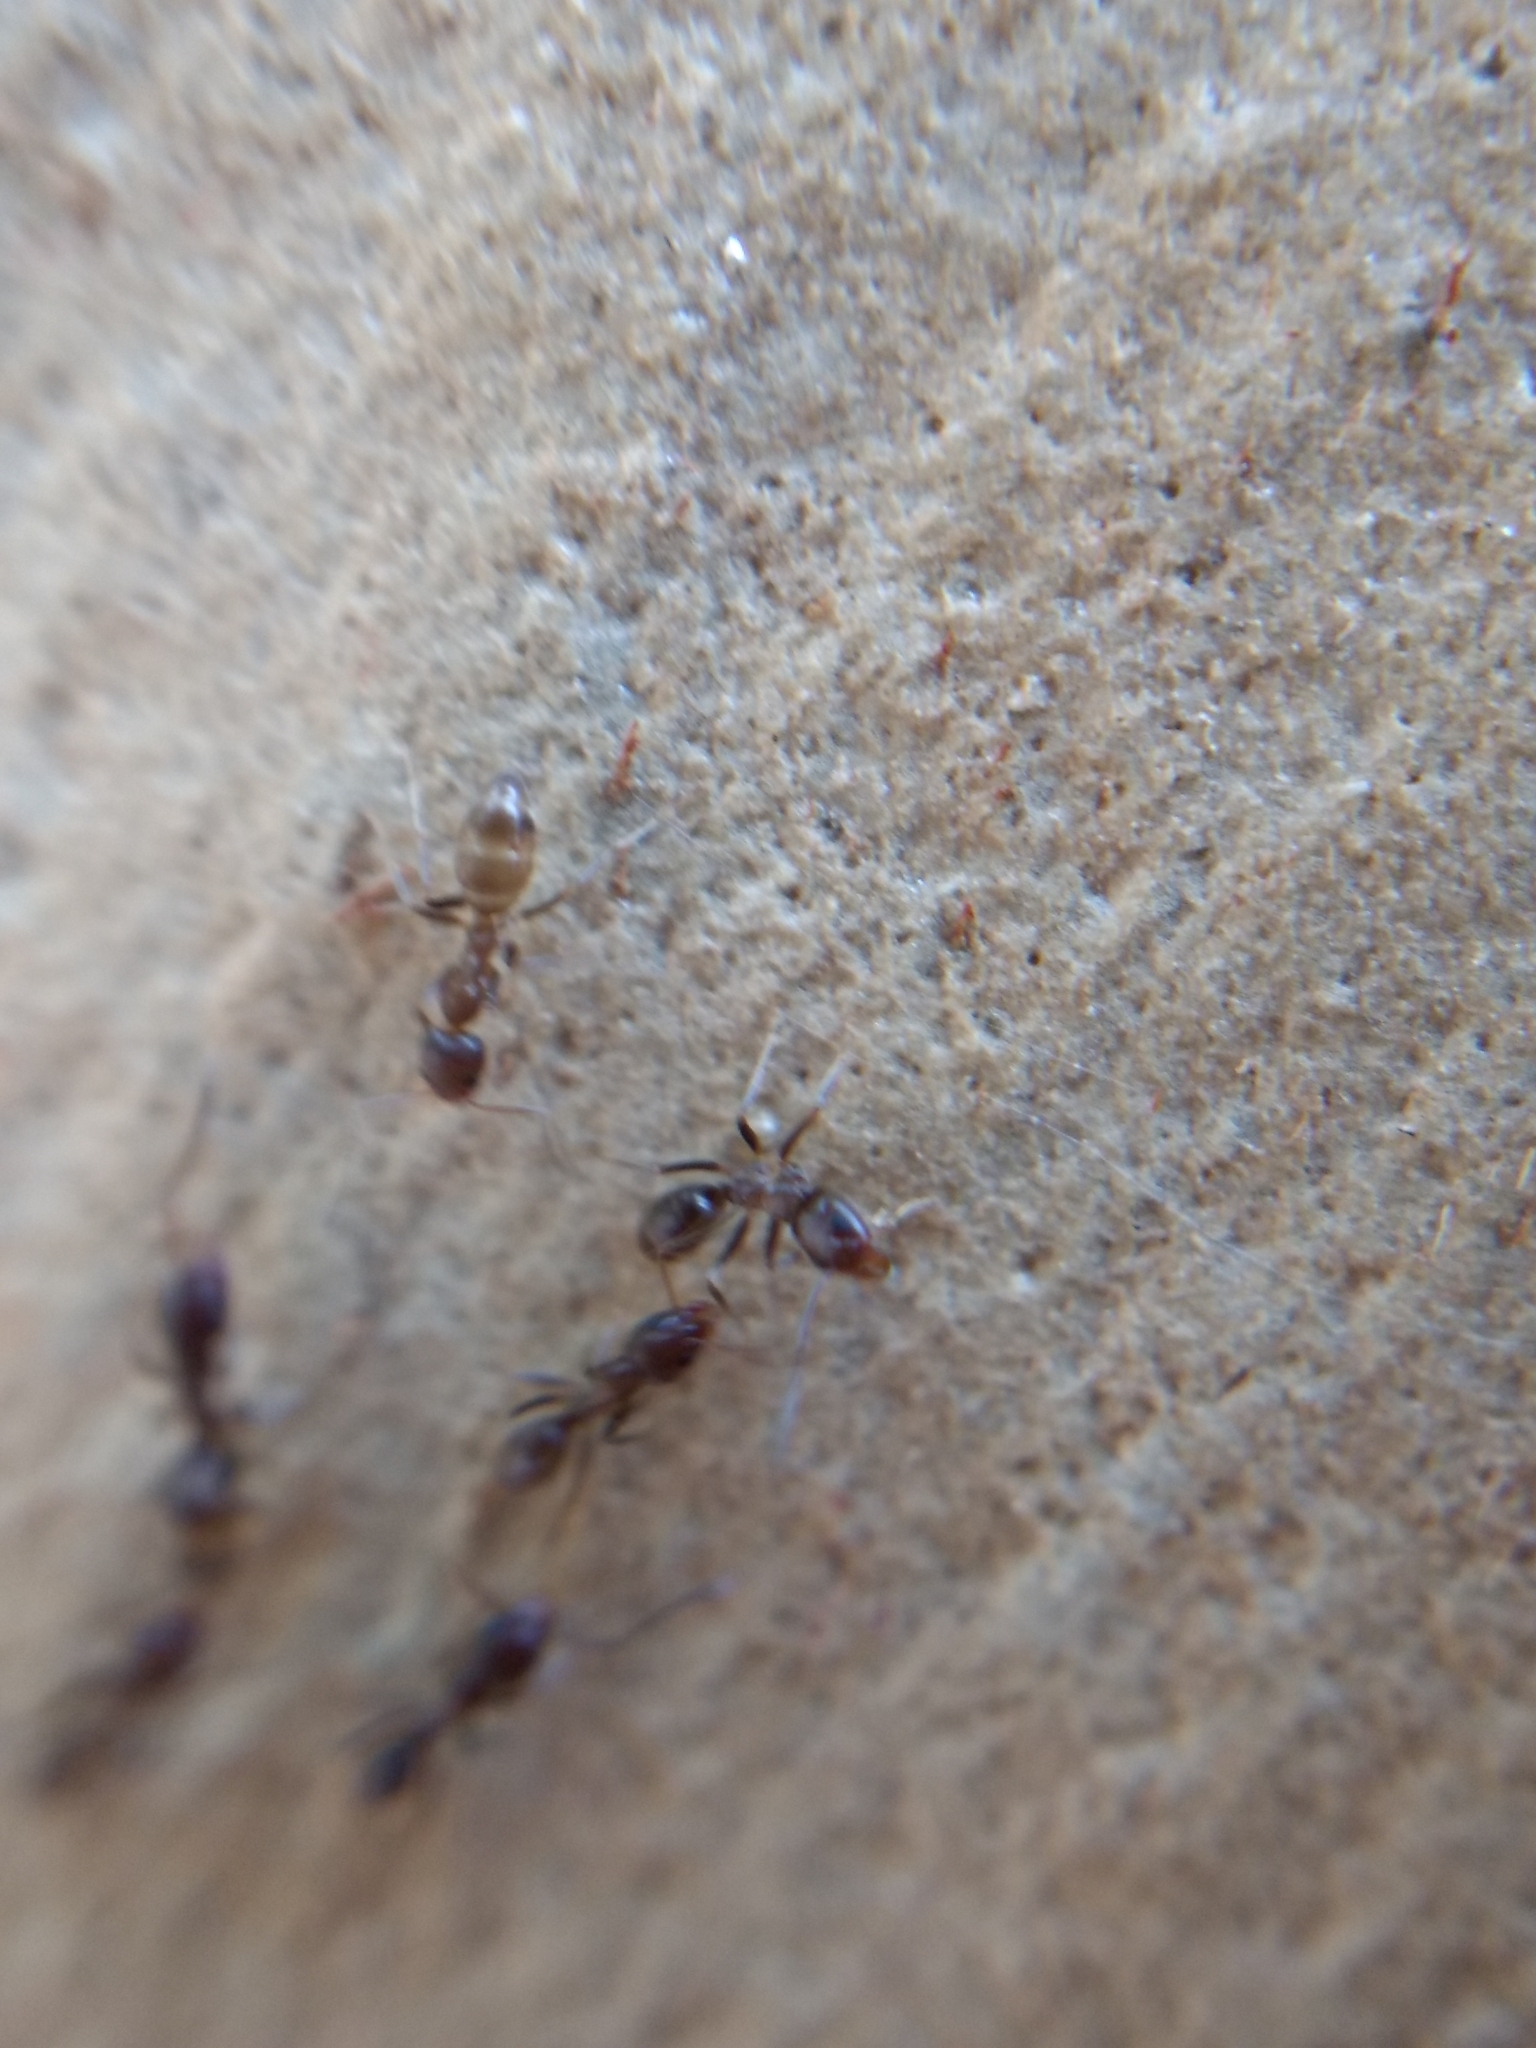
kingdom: Animalia
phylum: Arthropoda
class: Insecta
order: Hymenoptera
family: Formicidae
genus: Linepithema
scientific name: Linepithema humile
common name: Argentine ant
